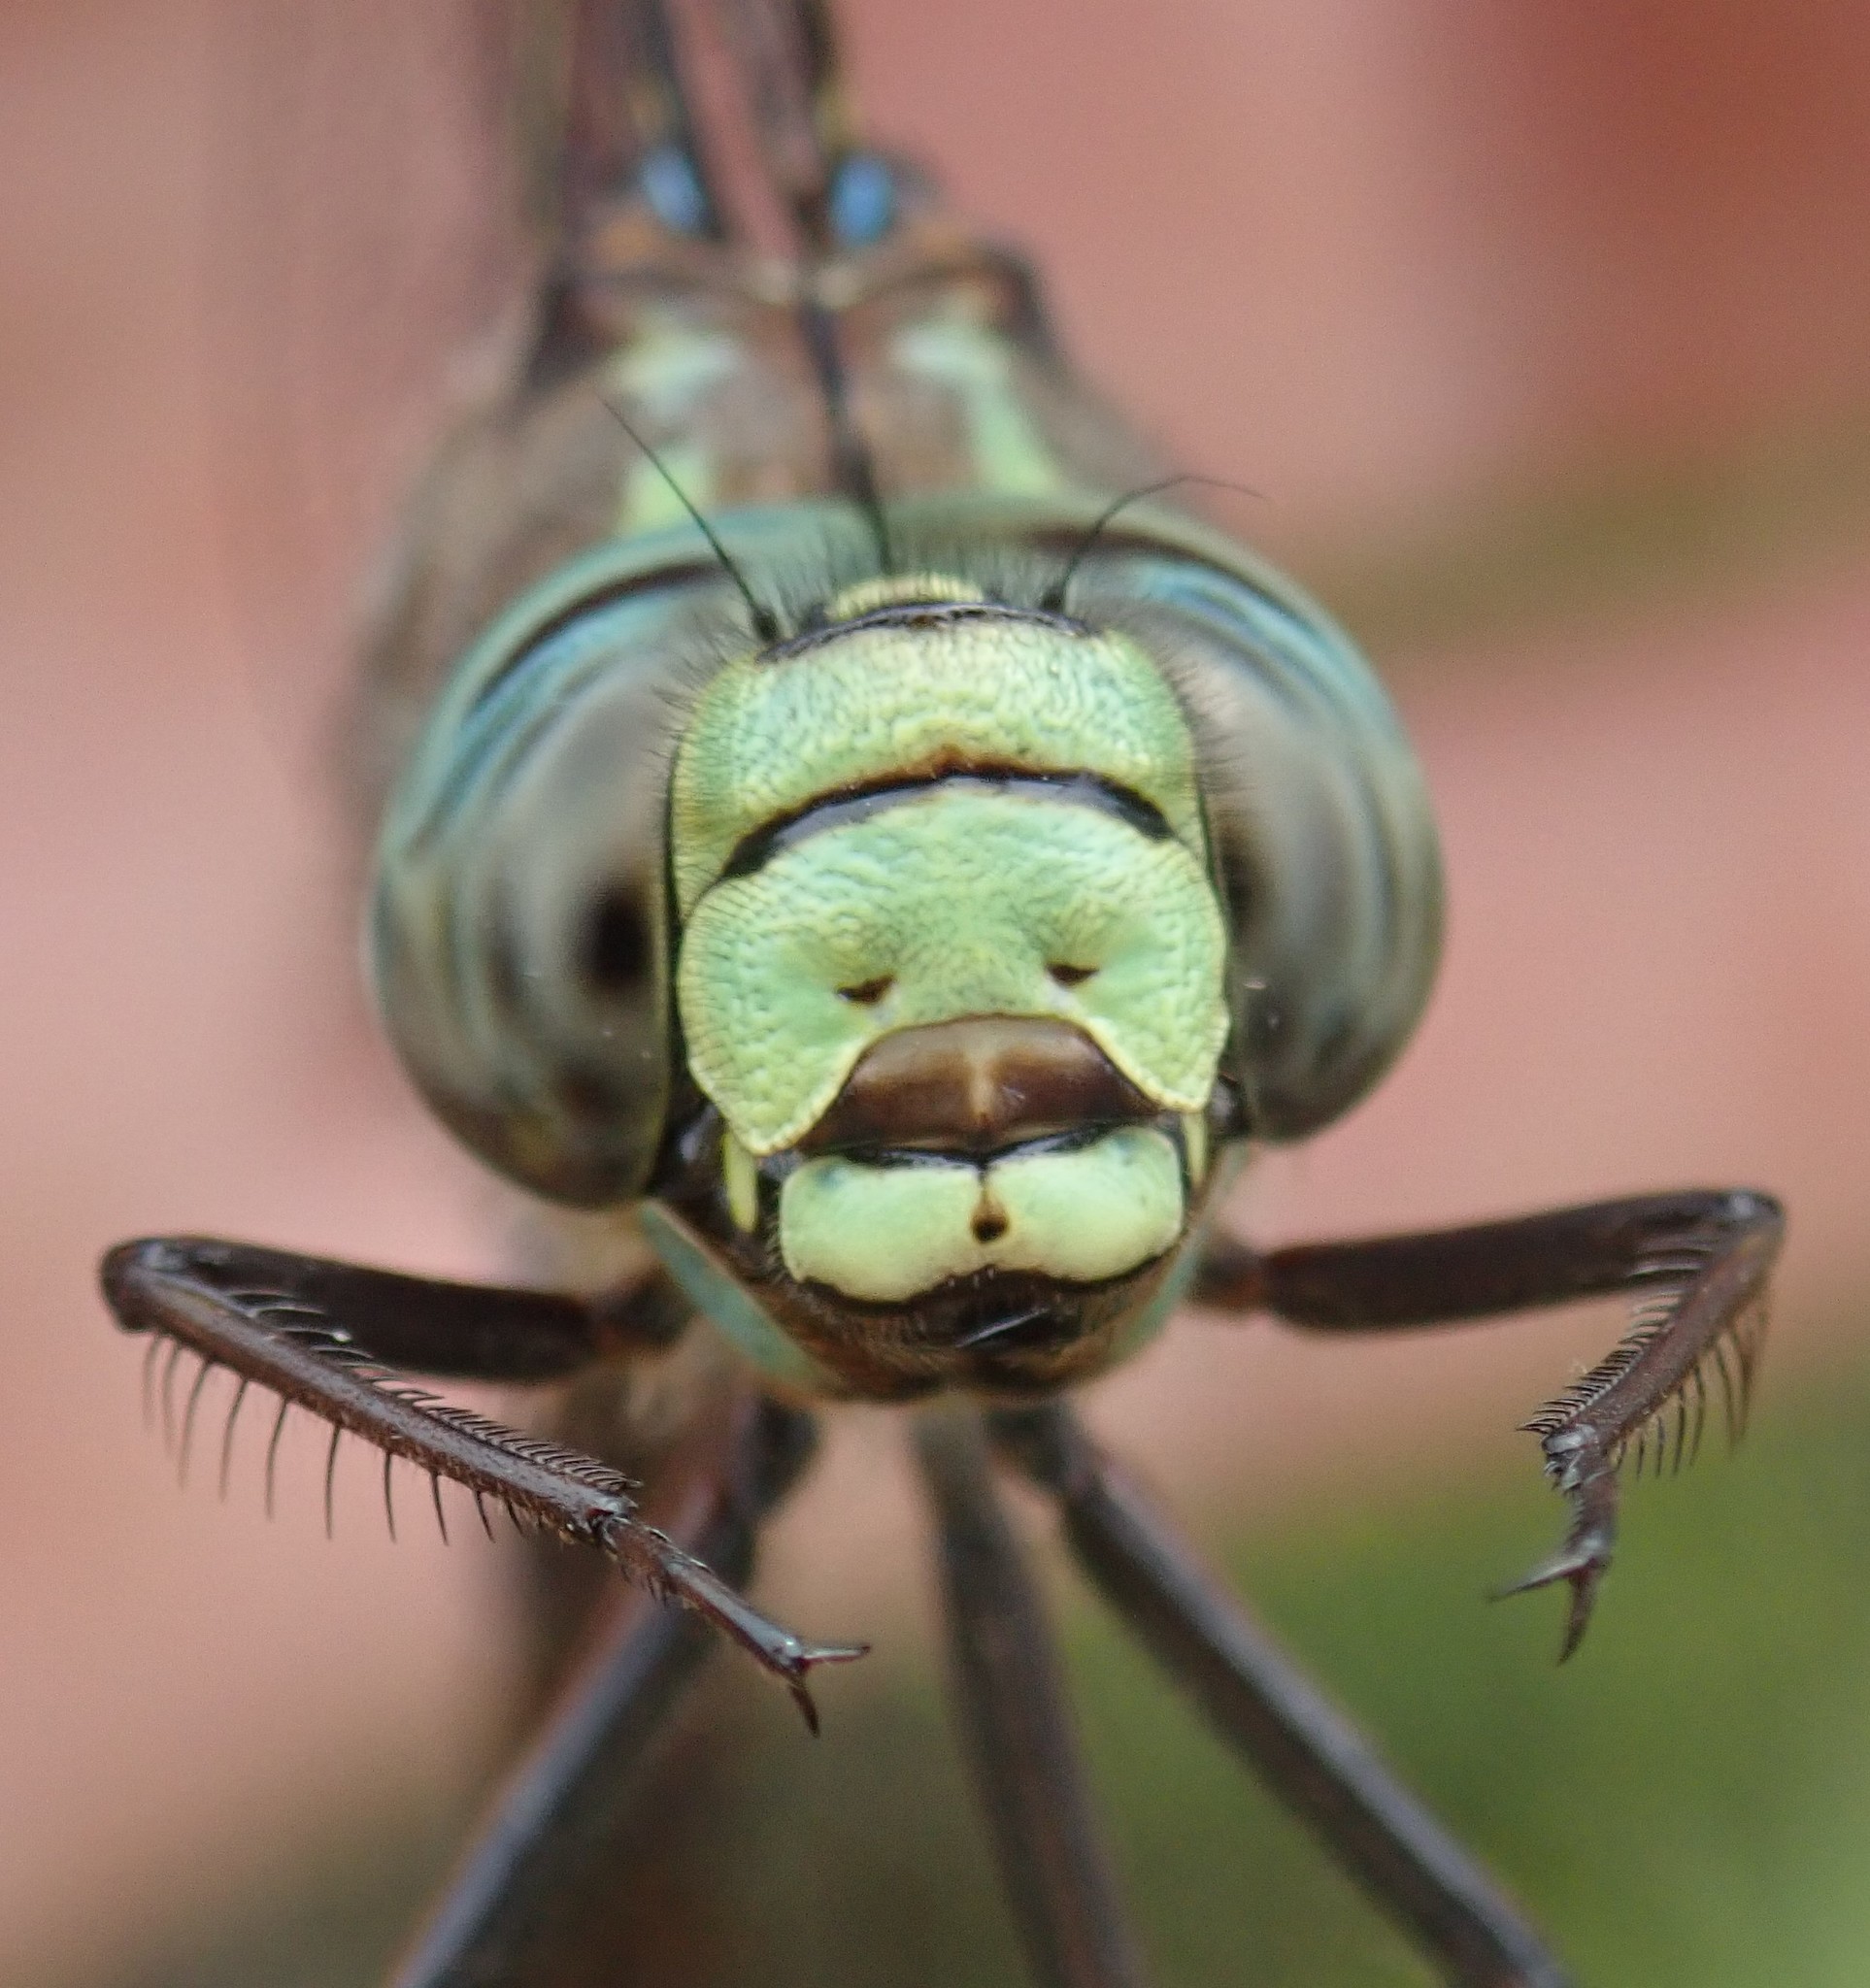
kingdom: Animalia
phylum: Arthropoda
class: Insecta
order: Odonata
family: Aeshnidae
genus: Aeshna
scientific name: Aeshna eremita
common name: Lake darner
